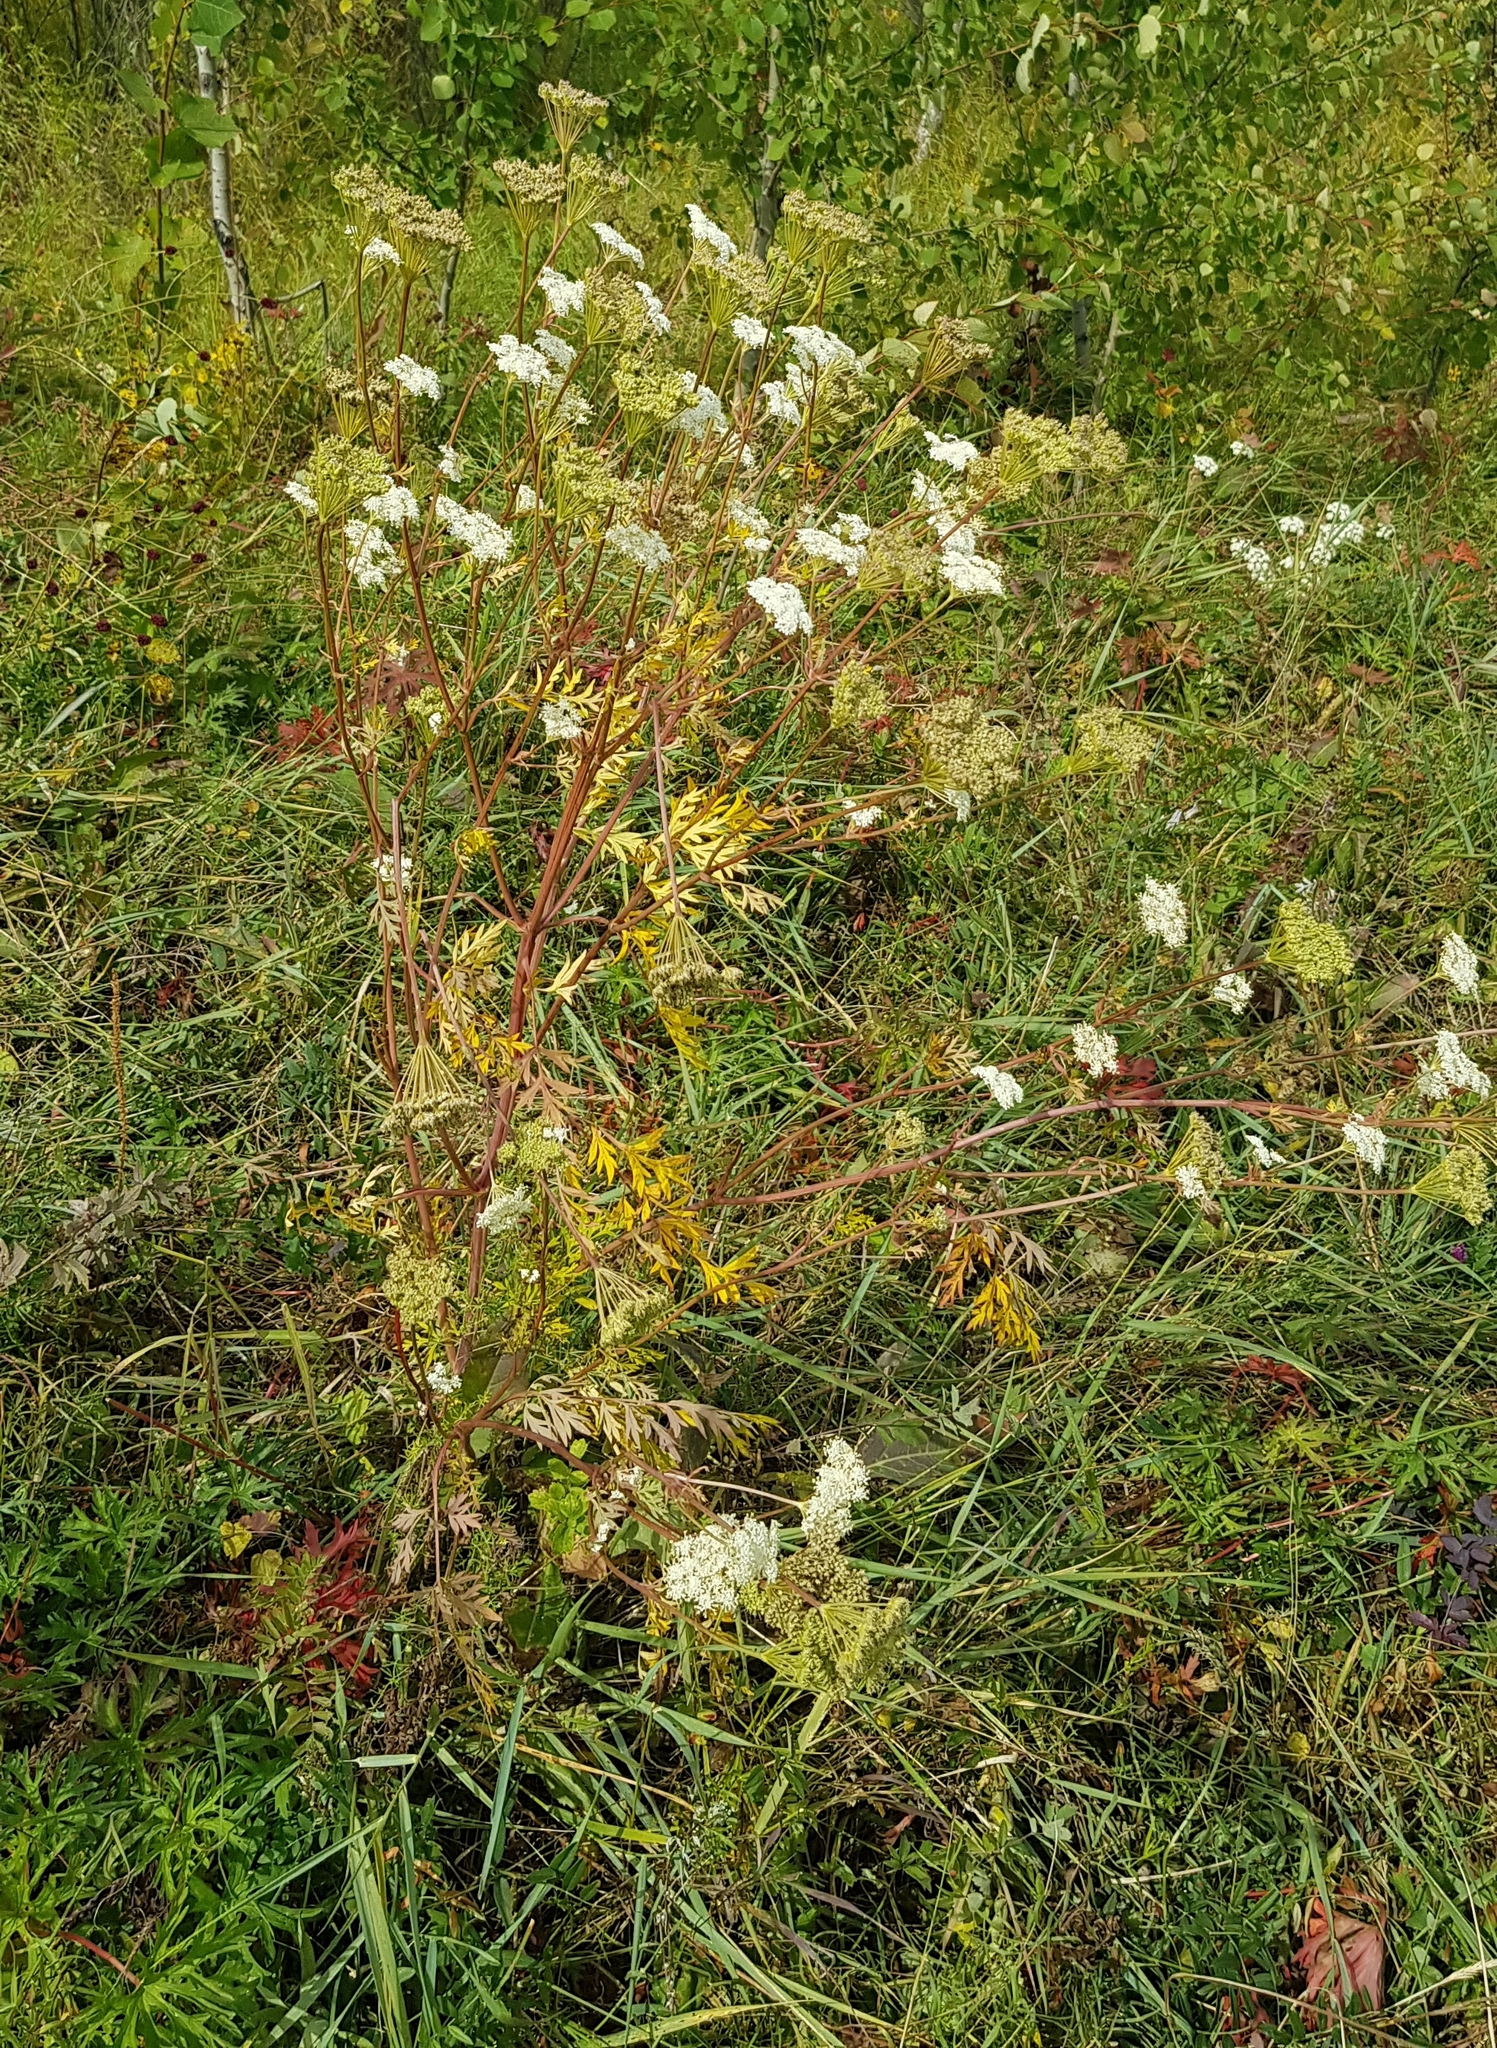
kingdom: Plantae
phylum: Tracheophyta
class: Magnoliopsida
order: Apiales
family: Apiaceae
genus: Kitagawia
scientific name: Kitagawia terebinthacea
